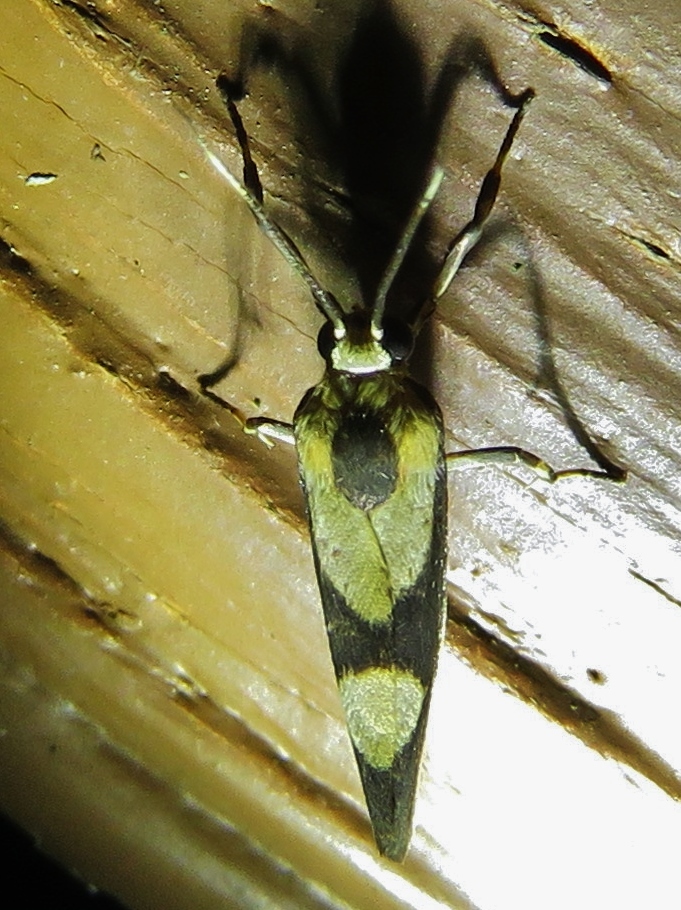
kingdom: Animalia
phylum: Arthropoda
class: Insecta
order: Lepidoptera
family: Erebidae
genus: Cisthene
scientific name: Cisthene polyzona
